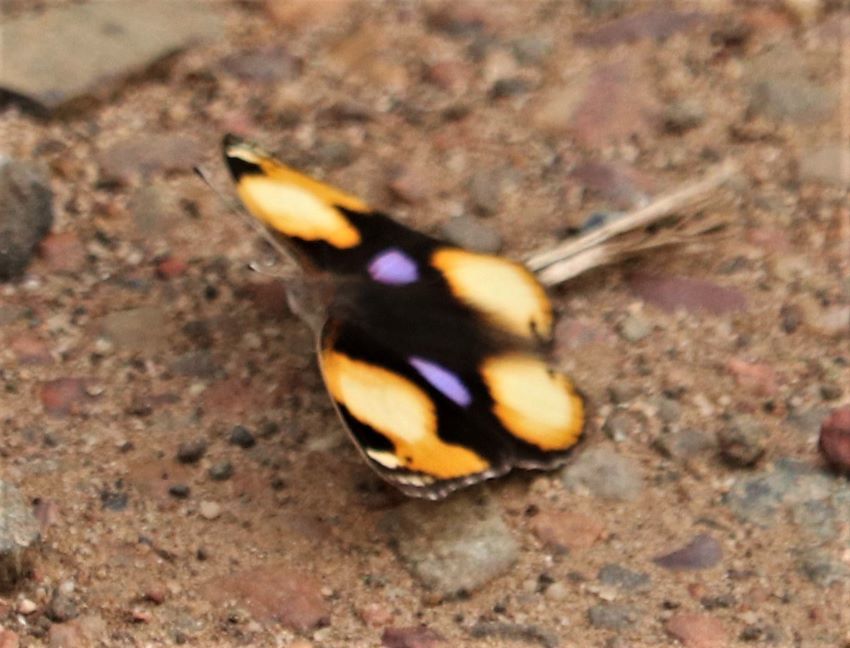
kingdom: Animalia
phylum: Arthropoda
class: Insecta
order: Lepidoptera
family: Nymphalidae
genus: Junonia
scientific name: Junonia hierta
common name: Yellow pansy
